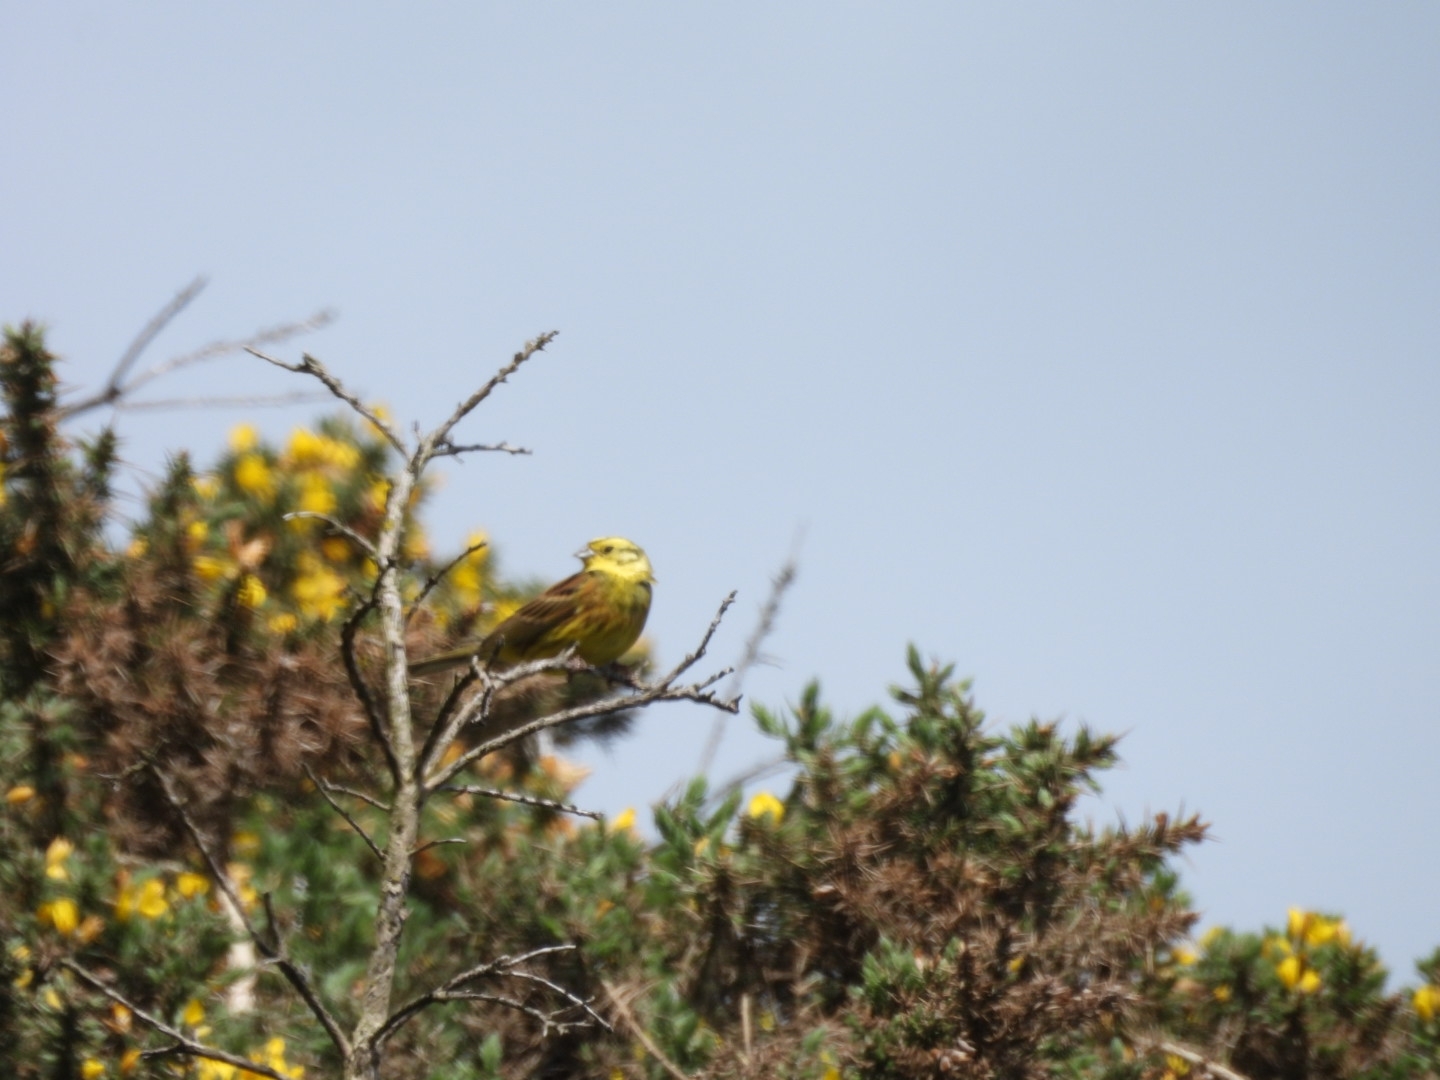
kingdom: Animalia
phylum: Chordata
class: Aves
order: Passeriformes
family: Emberizidae
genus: Emberiza
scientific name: Emberiza citrinella
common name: Yellowhammer
